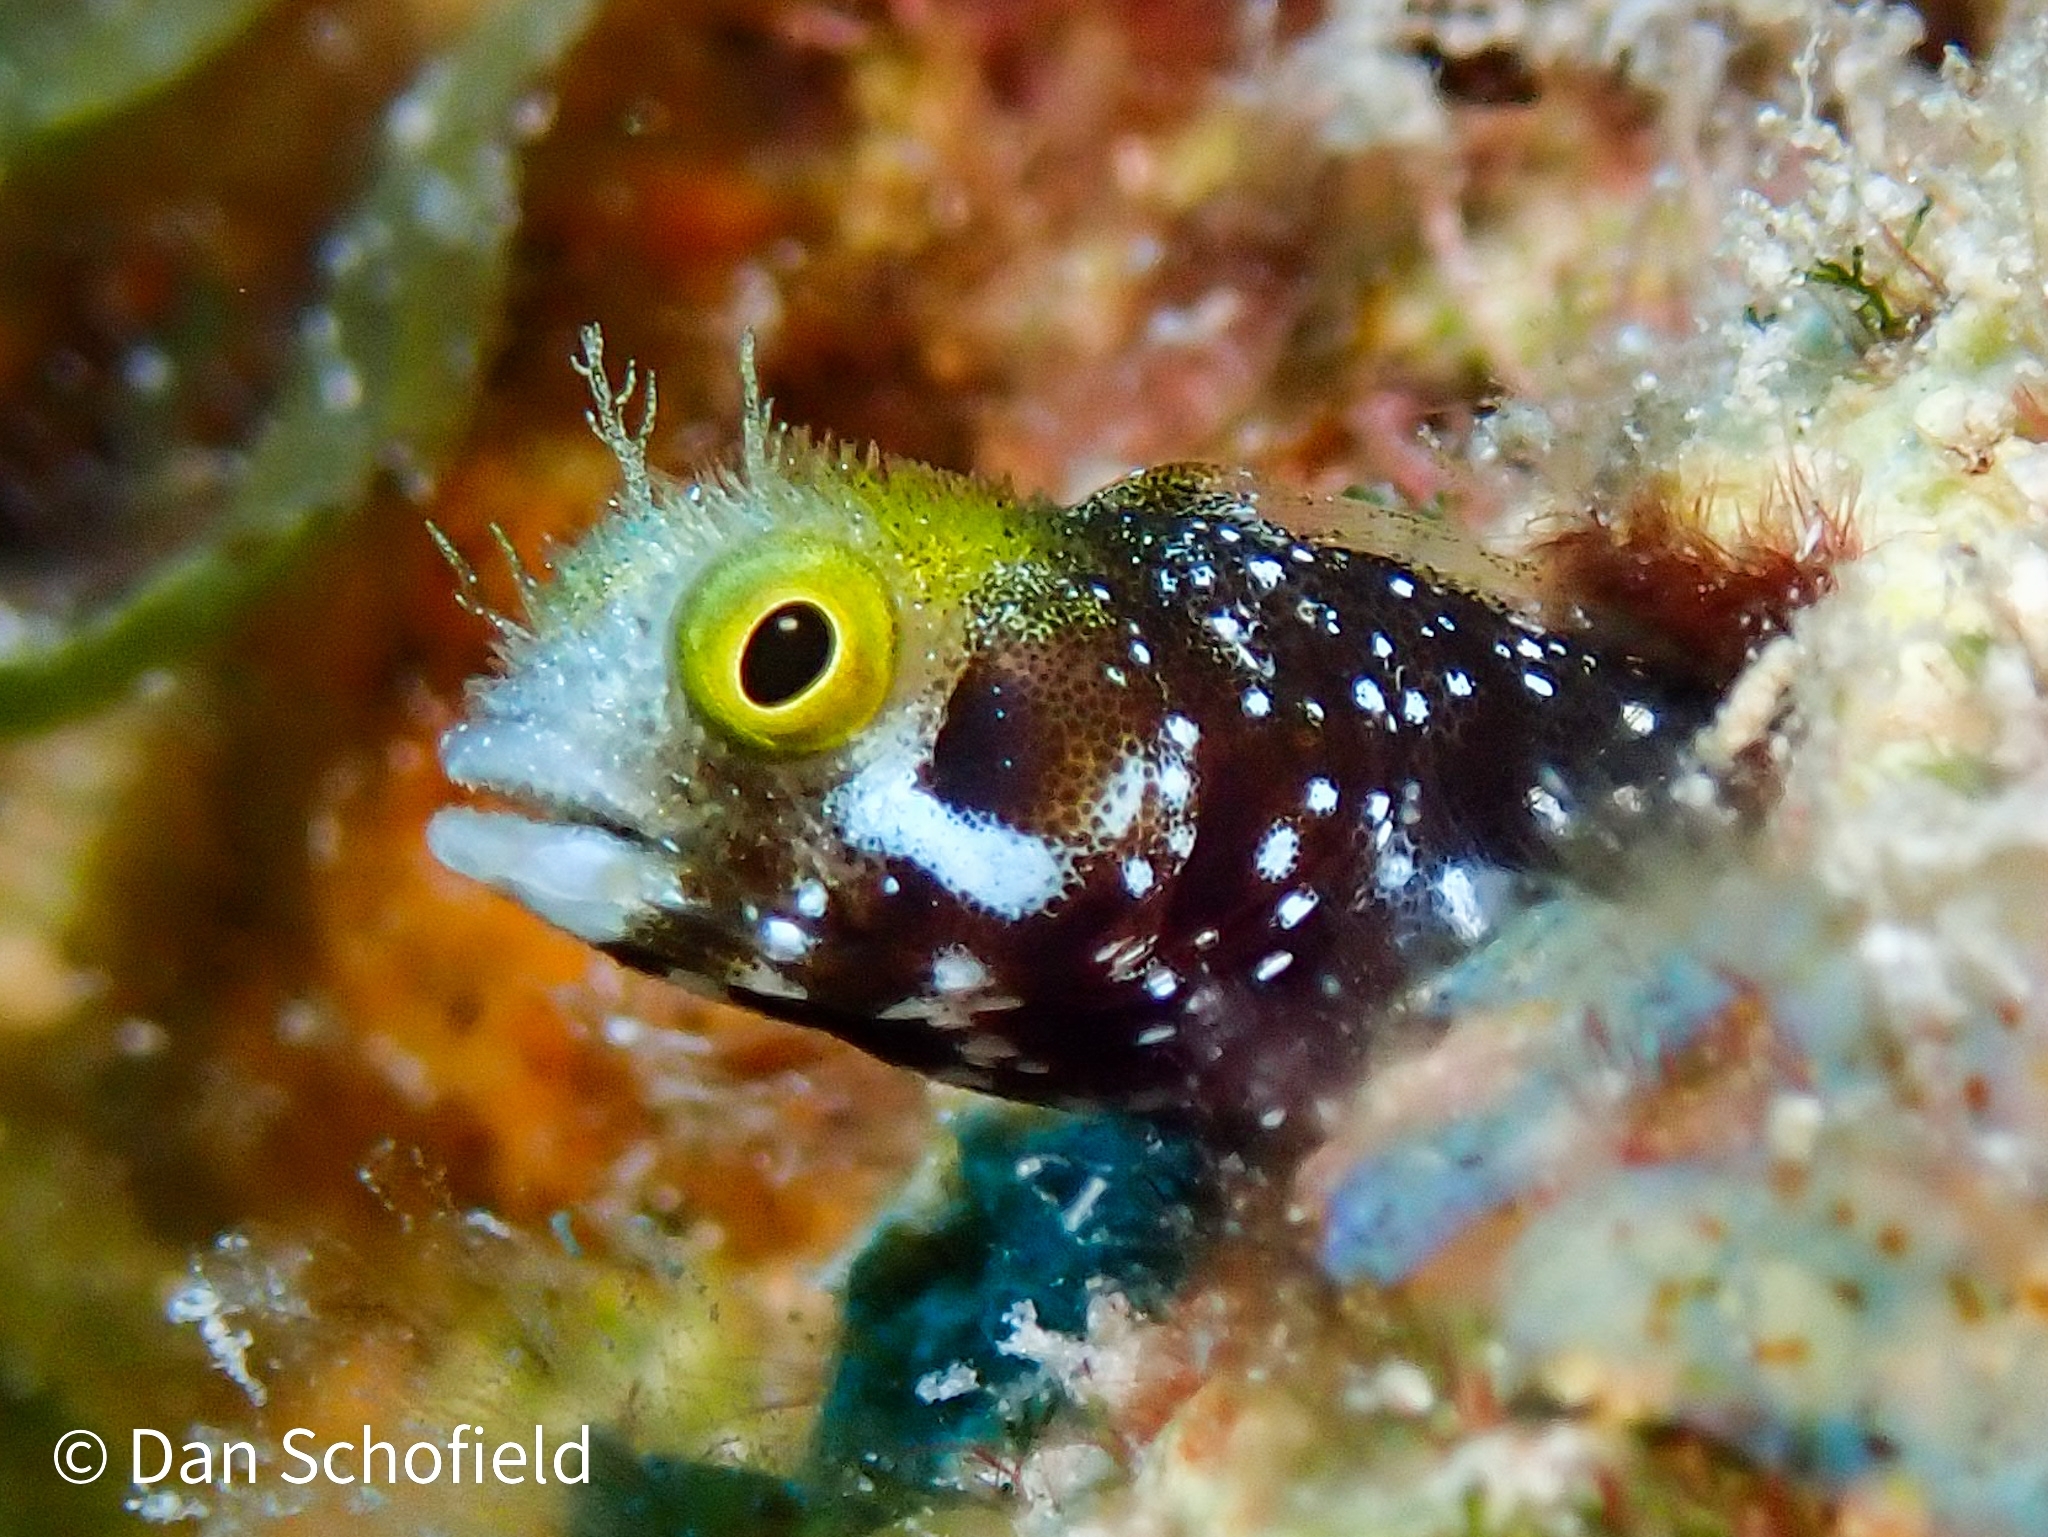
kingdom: Animalia
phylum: Chordata
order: Perciformes
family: Chaenopsidae
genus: Acanthemblemaria
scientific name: Acanthemblemaria spinosa
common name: Spinyhead blenny
